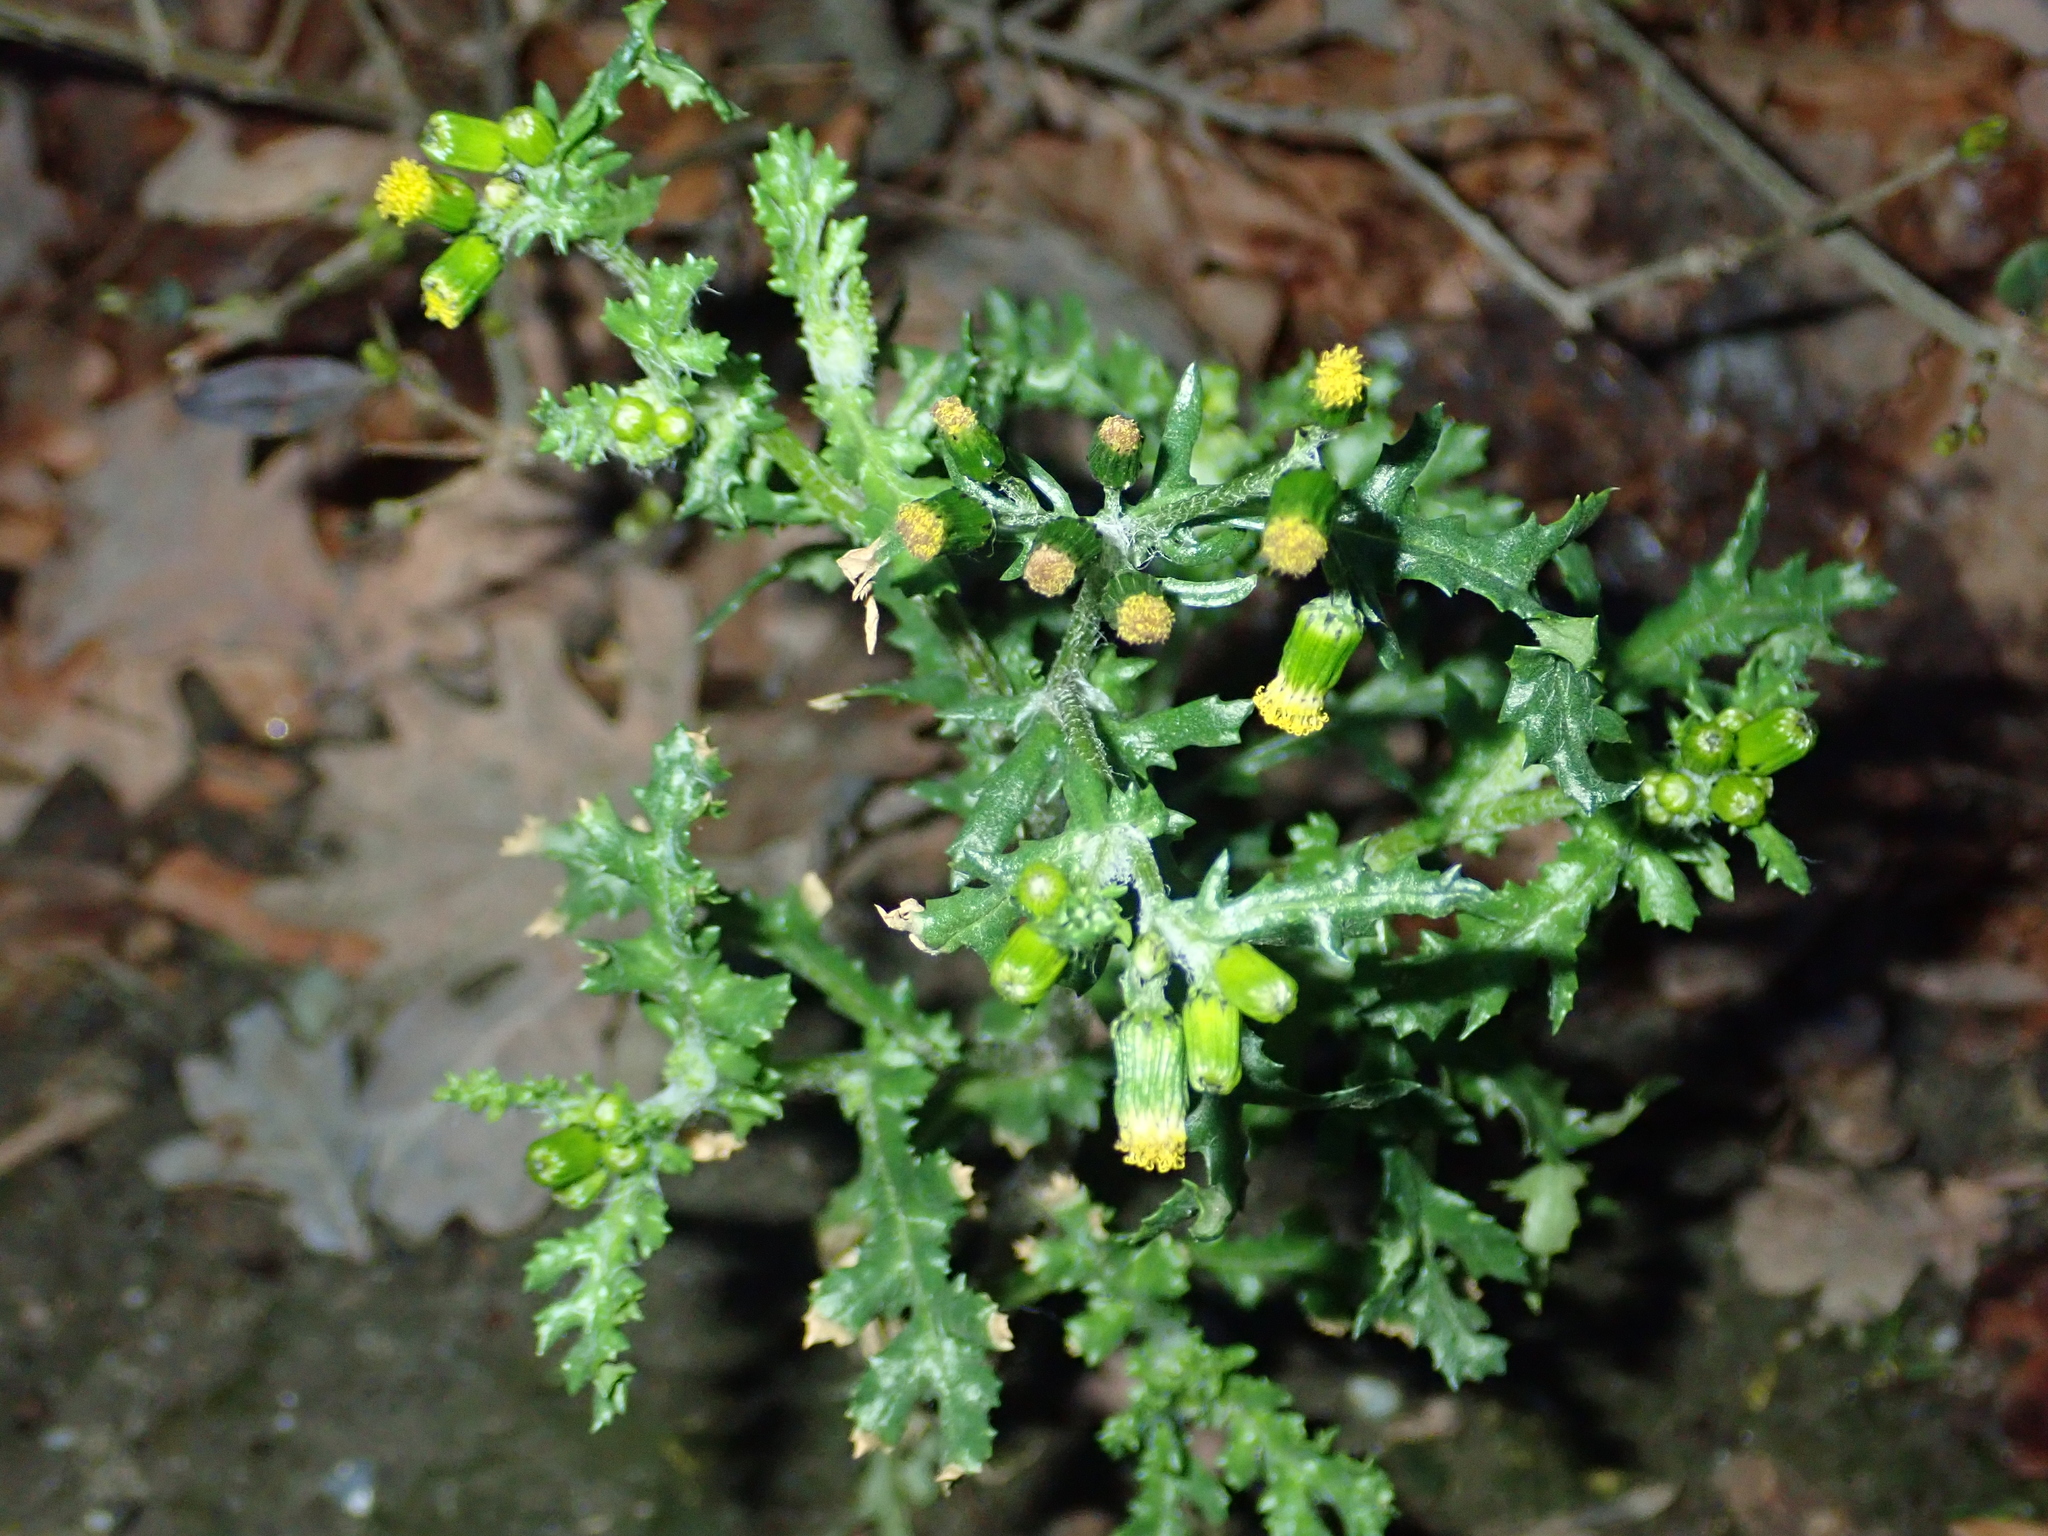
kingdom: Plantae
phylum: Tracheophyta
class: Magnoliopsida
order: Asterales
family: Asteraceae
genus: Senecio
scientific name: Senecio vulgaris
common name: Old-man-in-the-spring
